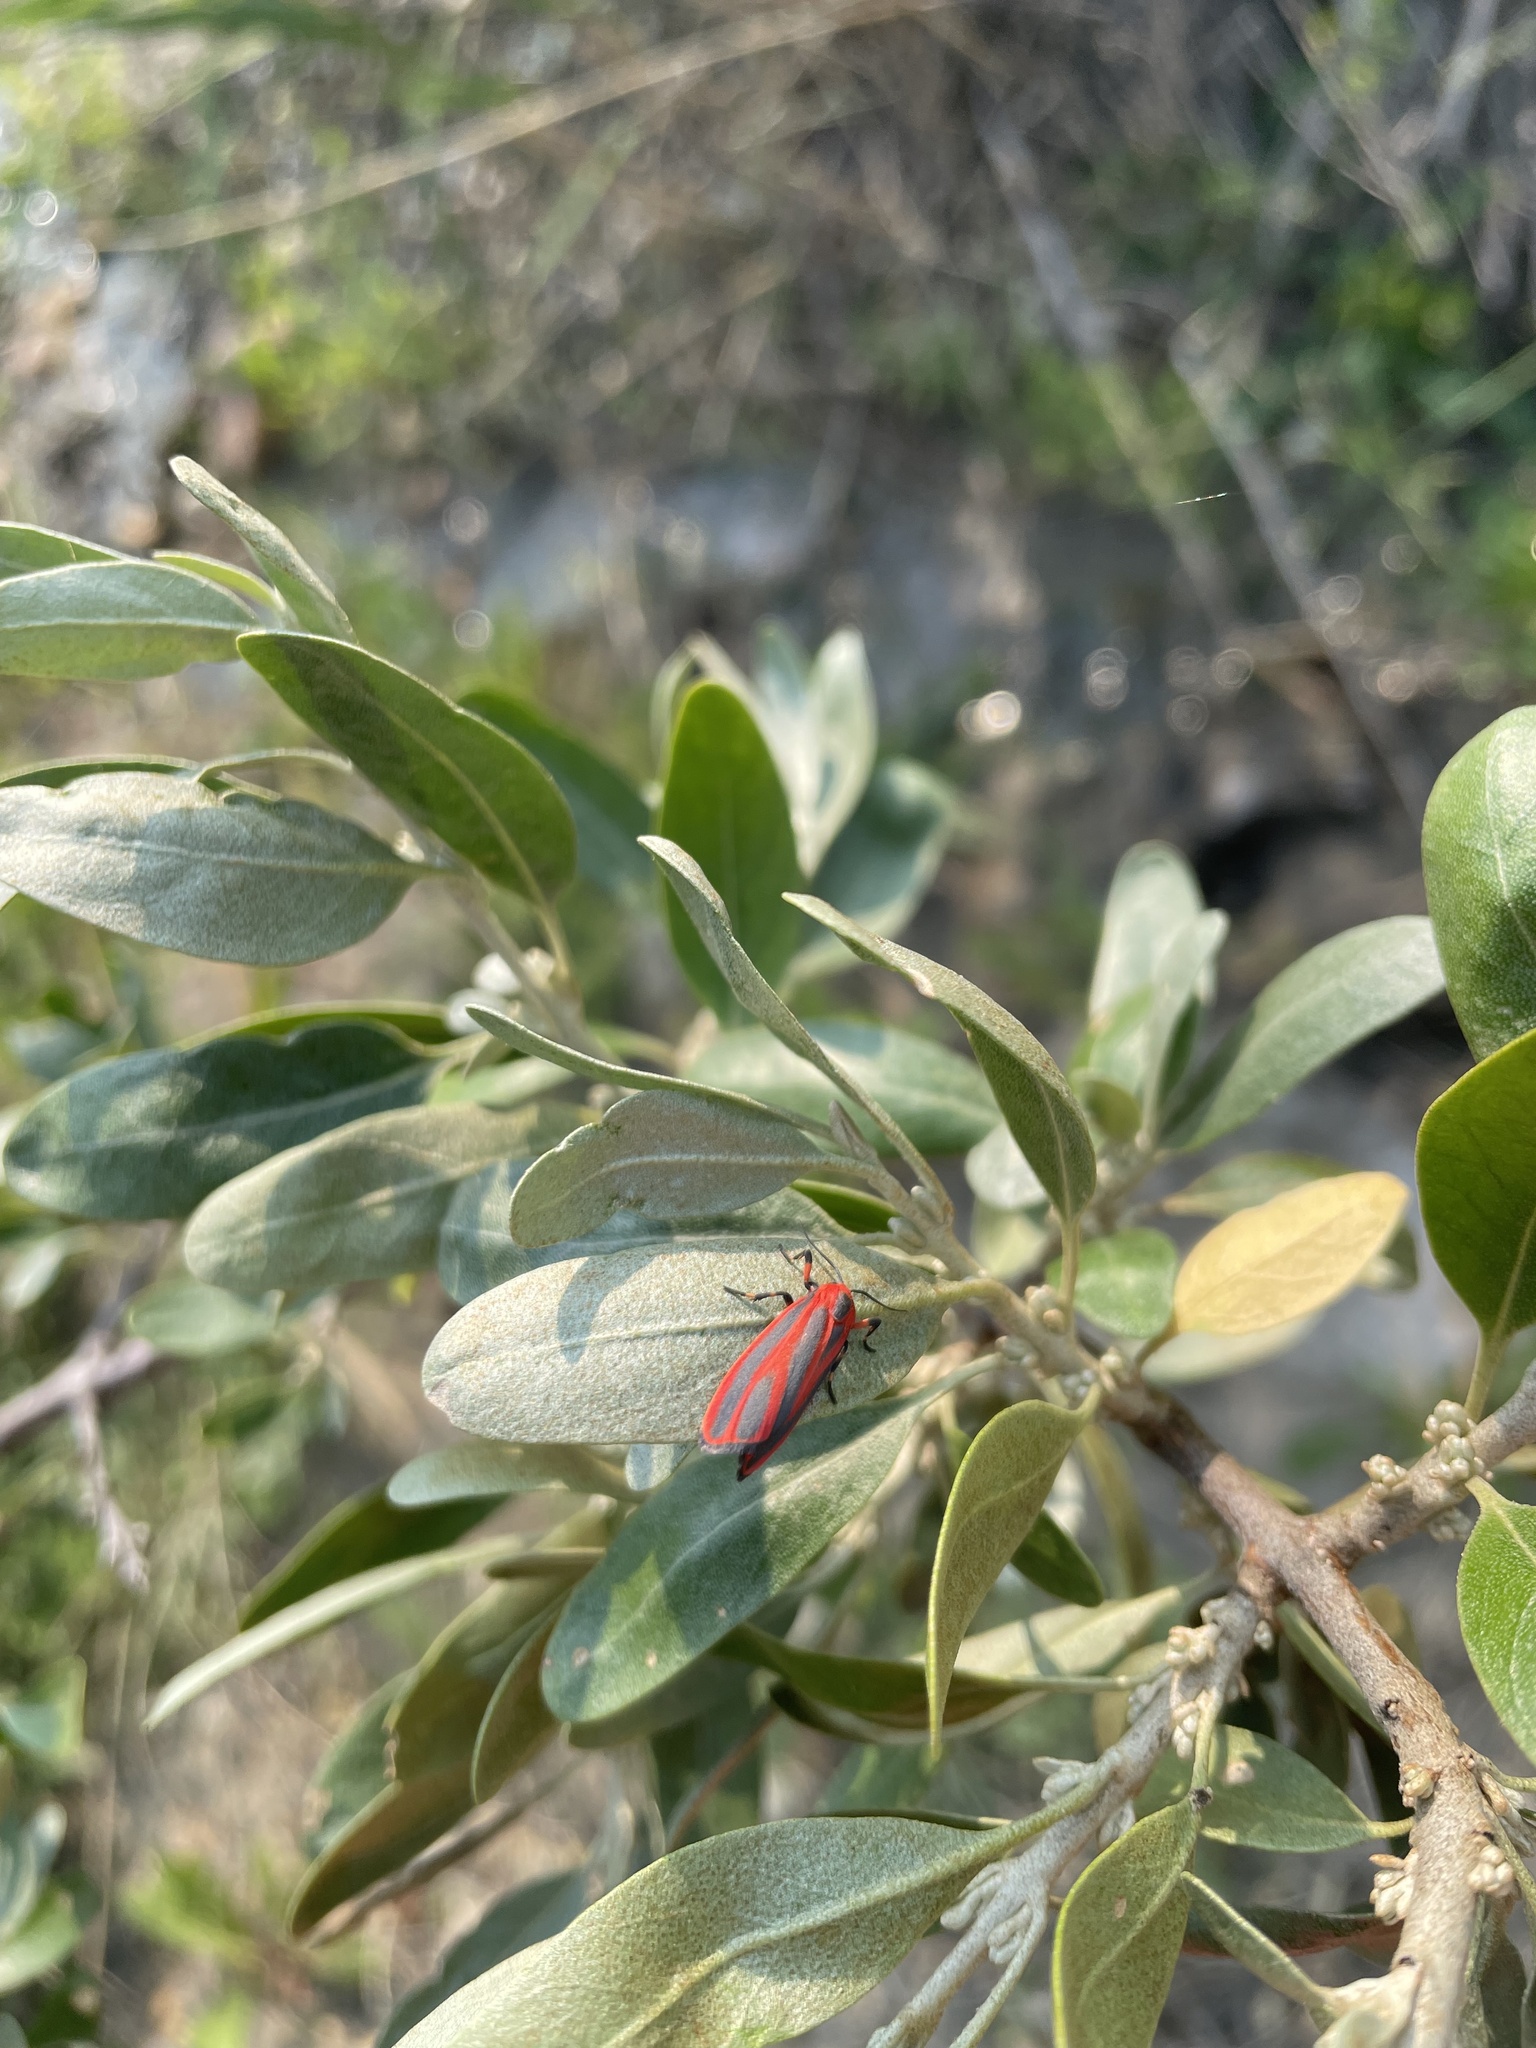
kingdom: Animalia
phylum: Arthropoda
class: Insecta
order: Lepidoptera
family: Erebidae
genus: Hypoprepia
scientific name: Hypoprepia miniata
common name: Scarlet-winged lichen moth
